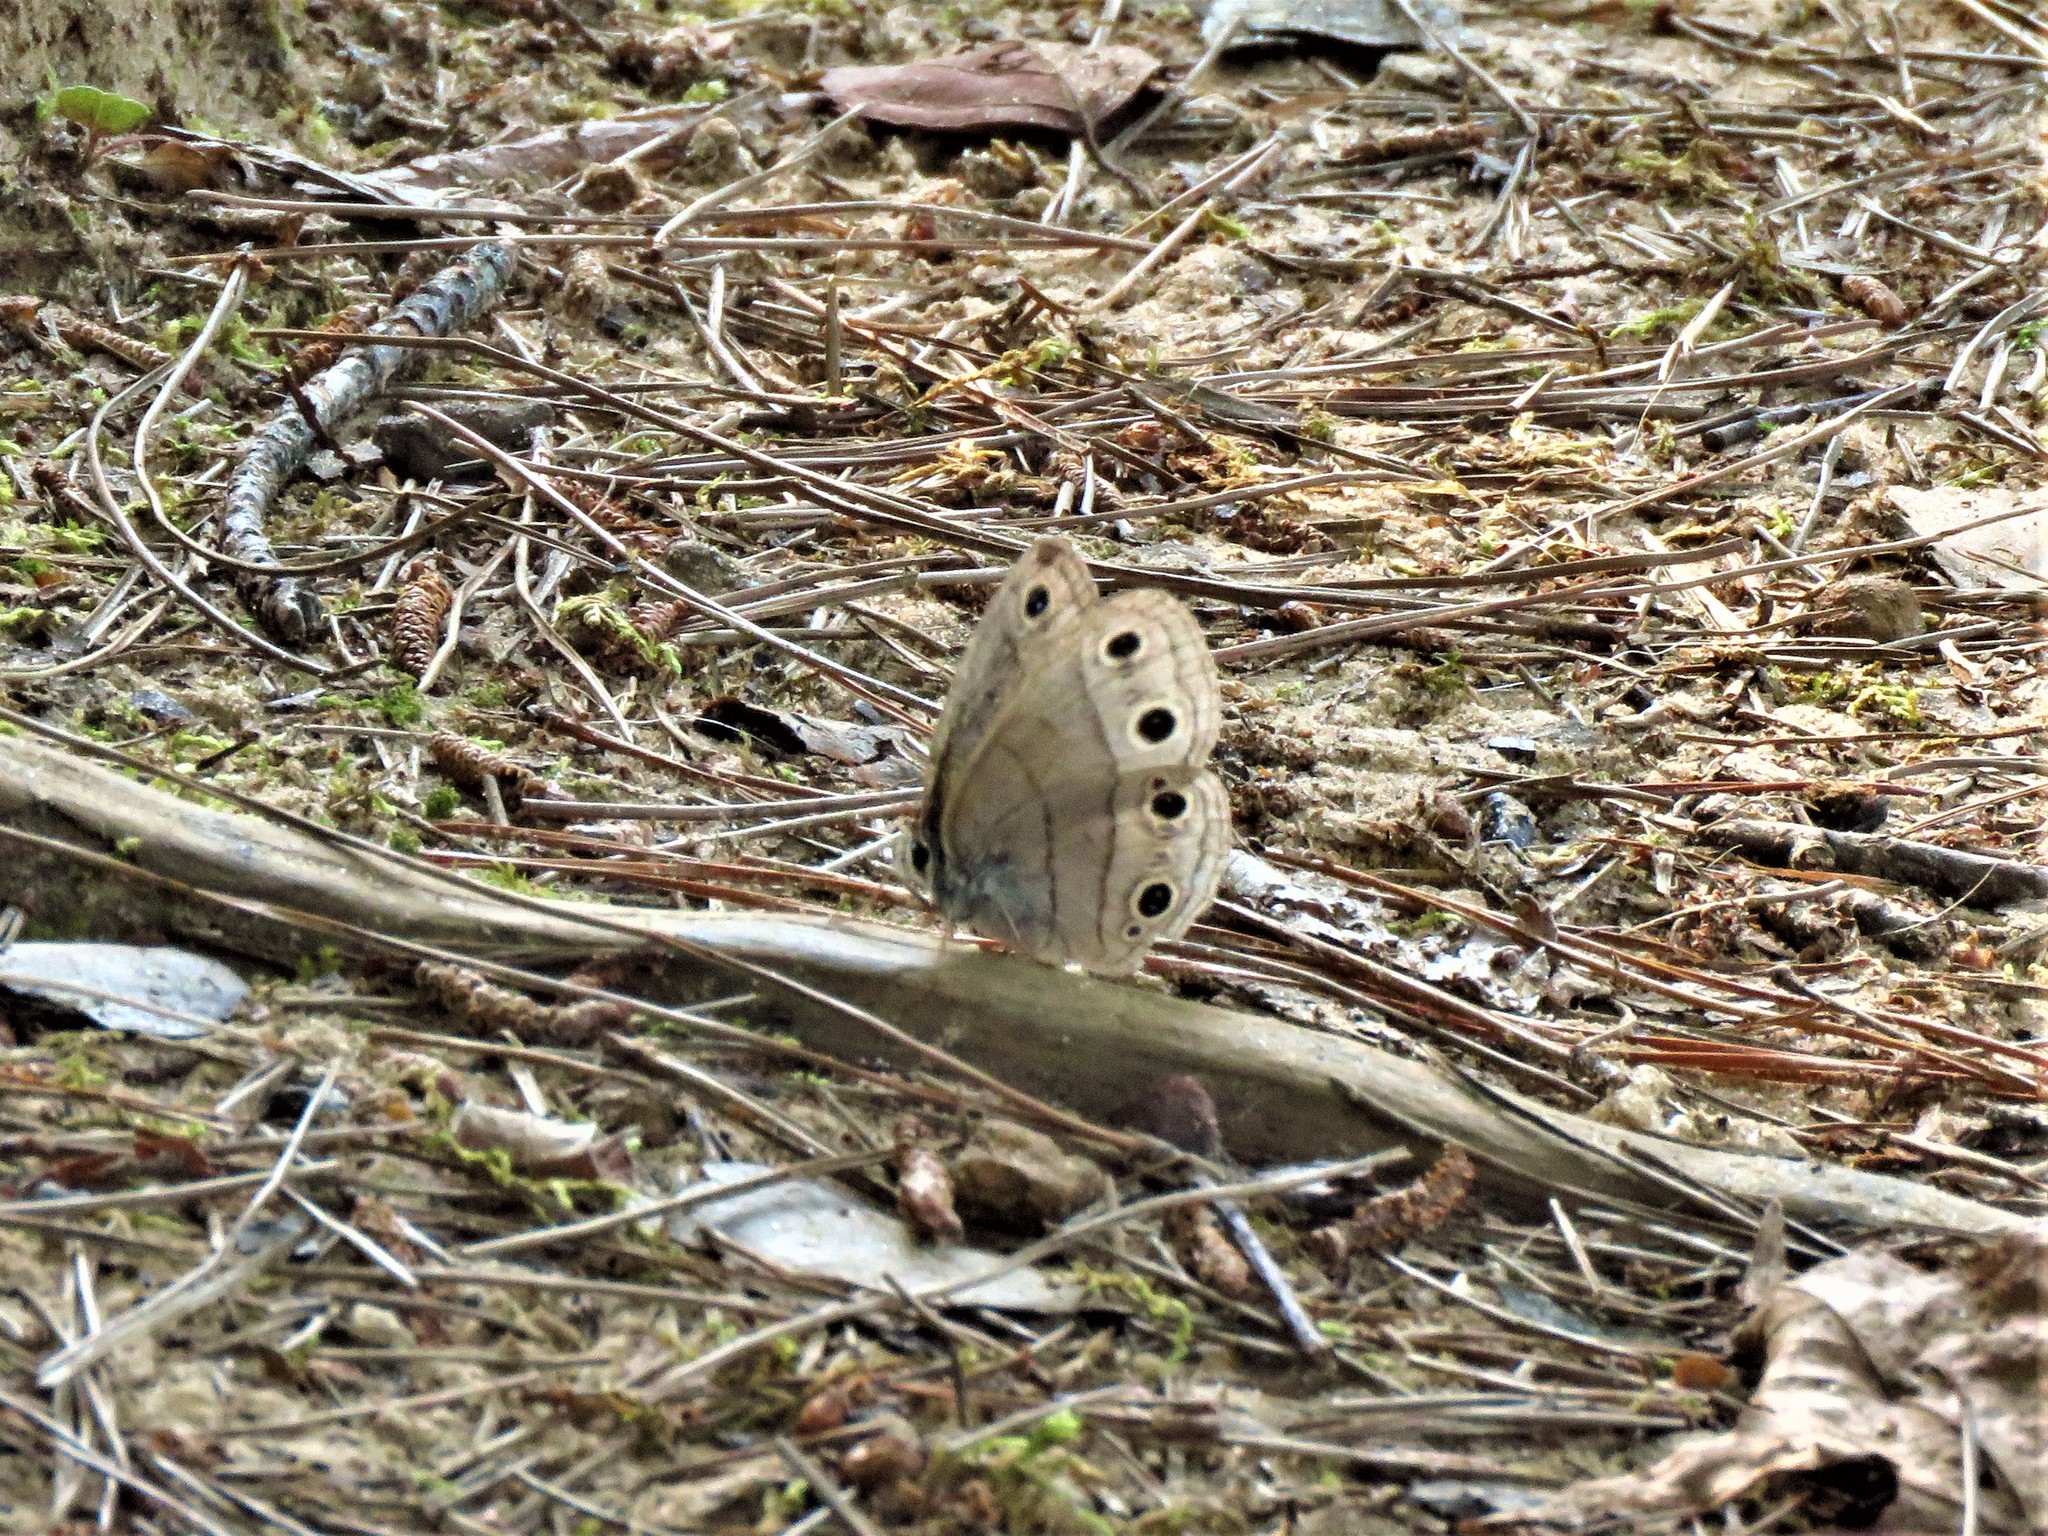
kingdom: Animalia
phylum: Arthropoda
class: Insecta
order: Lepidoptera
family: Nymphalidae
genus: Euptychia
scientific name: Euptychia cymela
